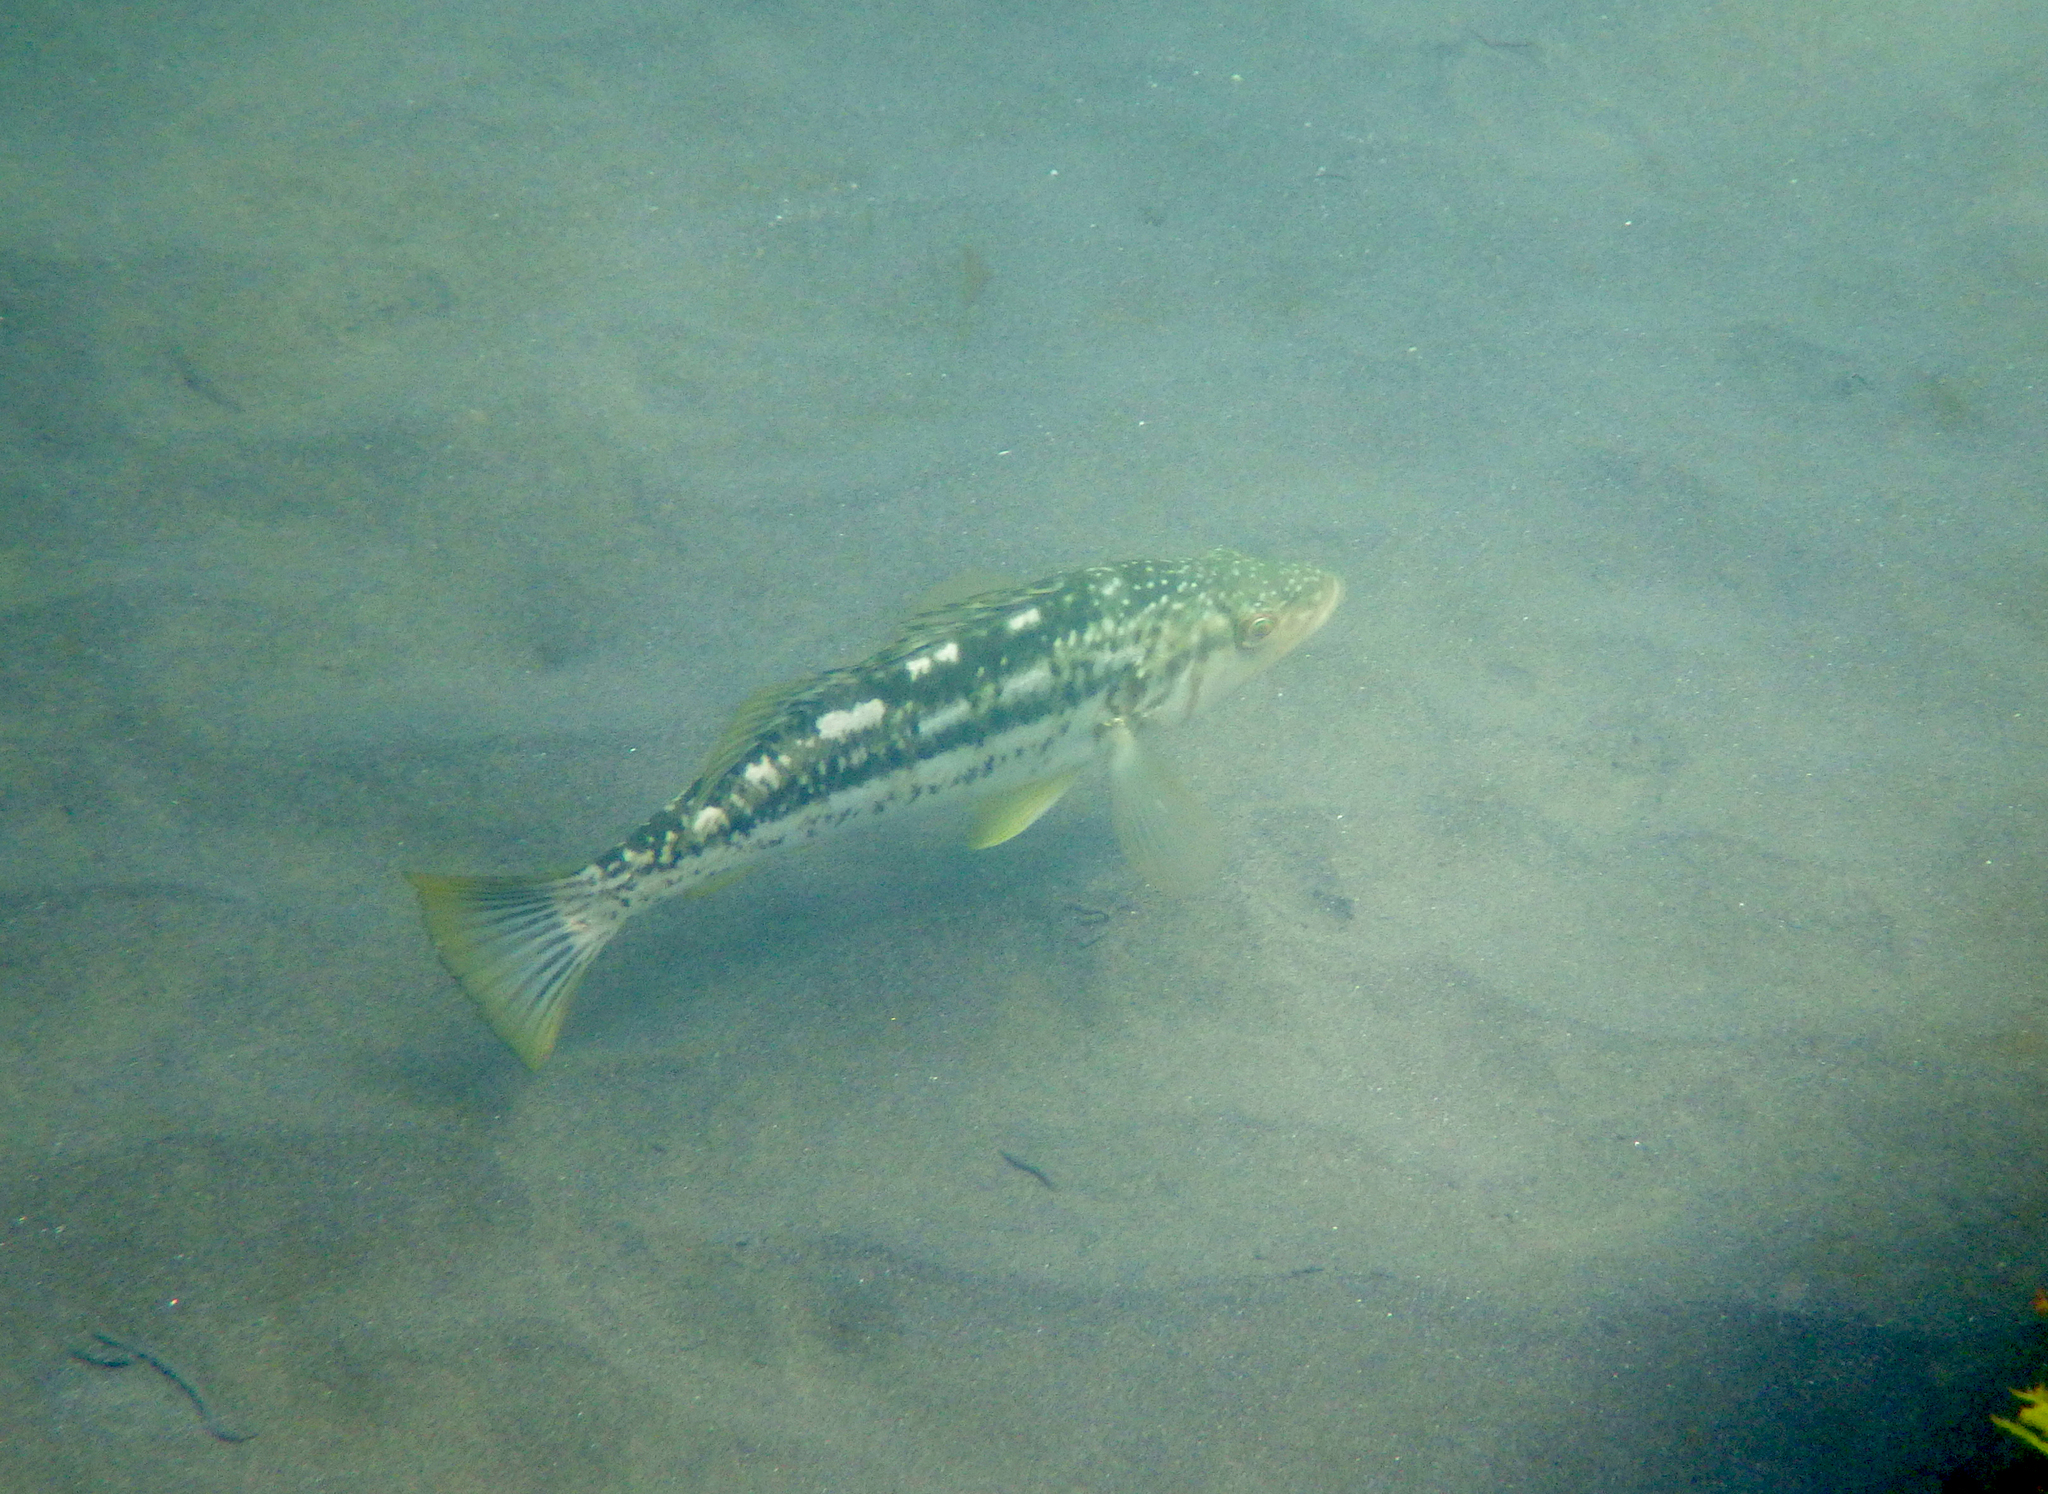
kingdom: Animalia
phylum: Chordata
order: Perciformes
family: Serranidae
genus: Paralabrax
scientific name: Paralabrax clathratus
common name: Kelp bass
